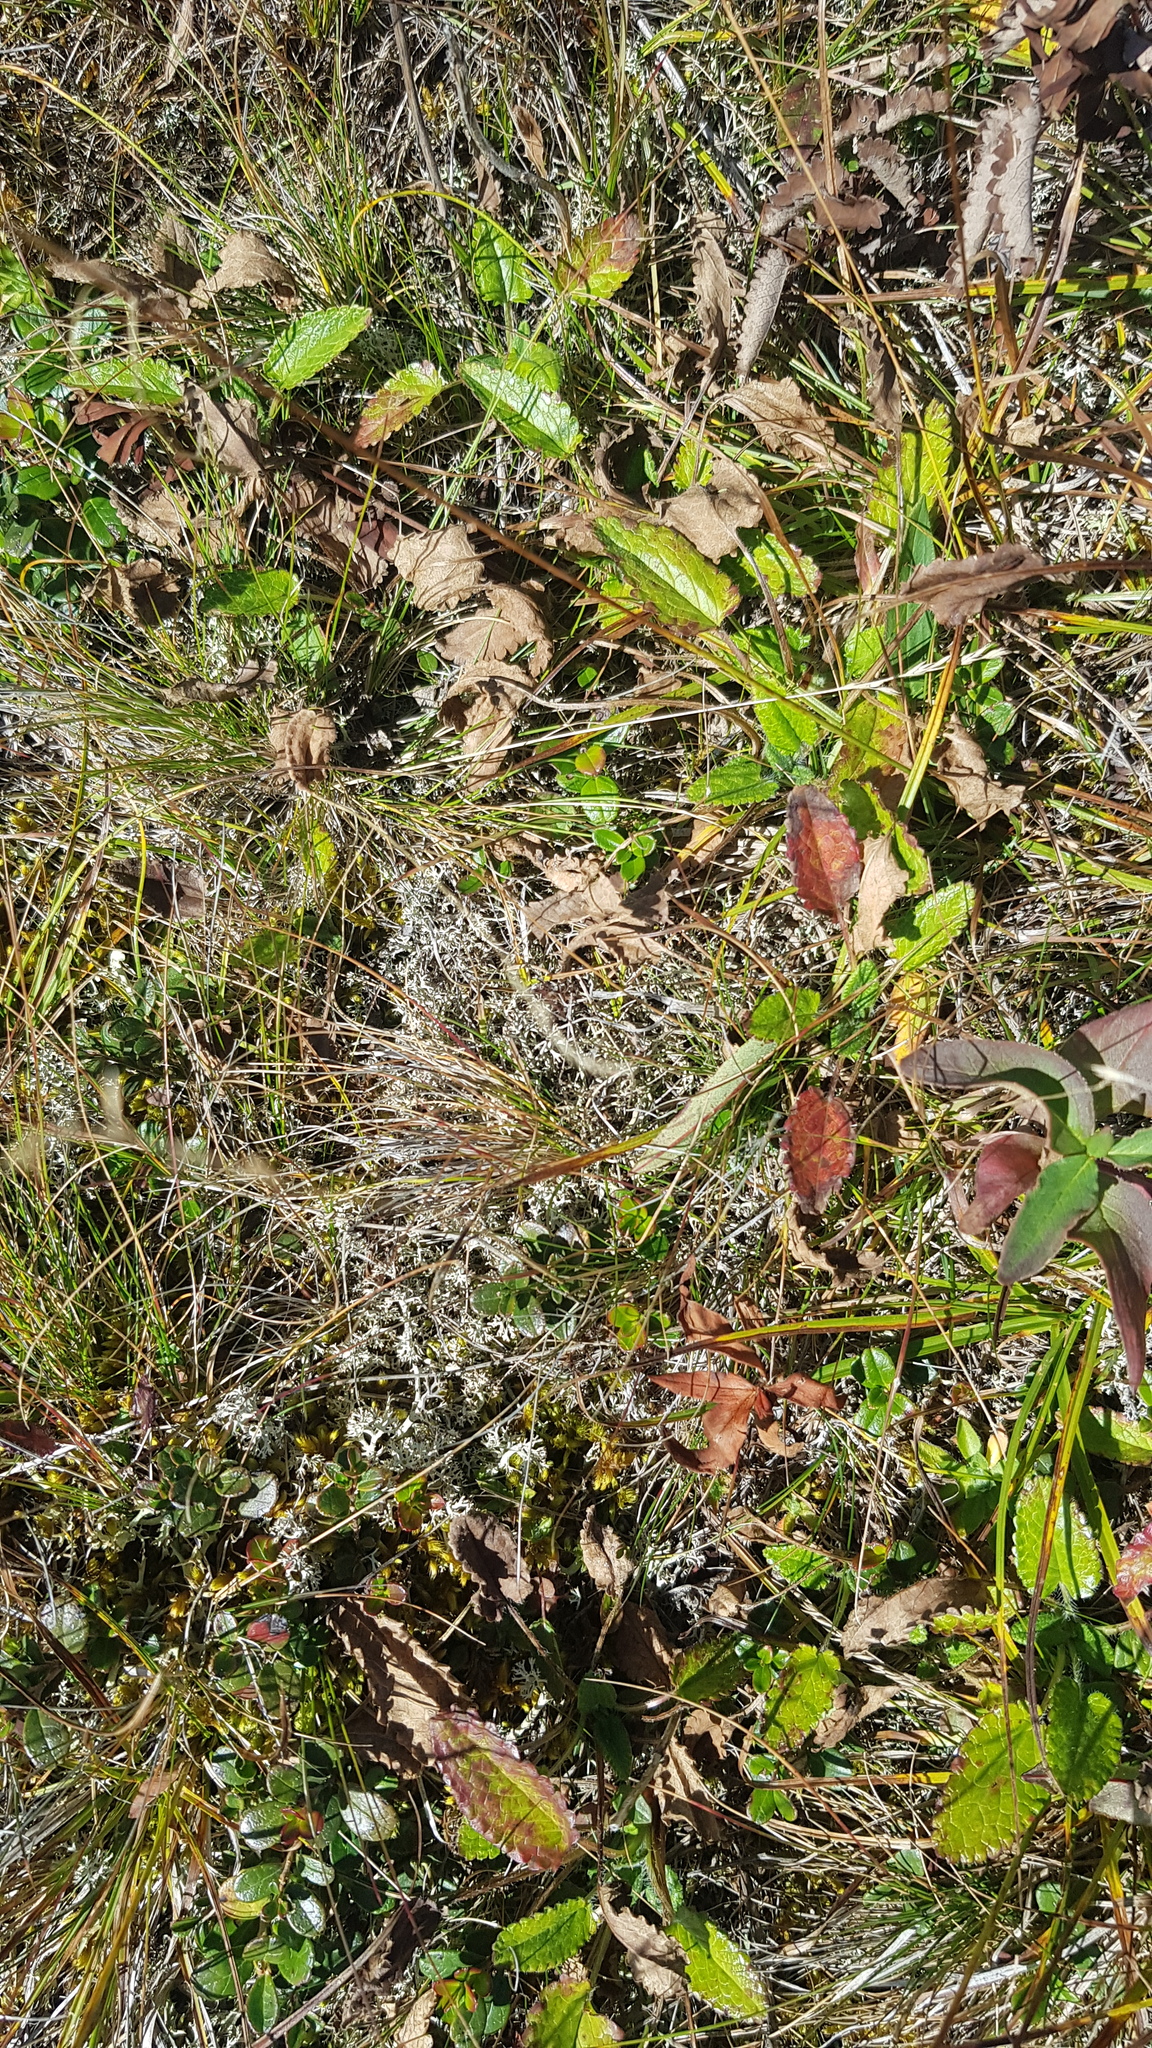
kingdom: Plantae
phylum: Tracheophyta
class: Magnoliopsida
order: Rosales
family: Rosaceae
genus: Dryas
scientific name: Dryas octopetala
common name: Eight-petal mountain-avens
